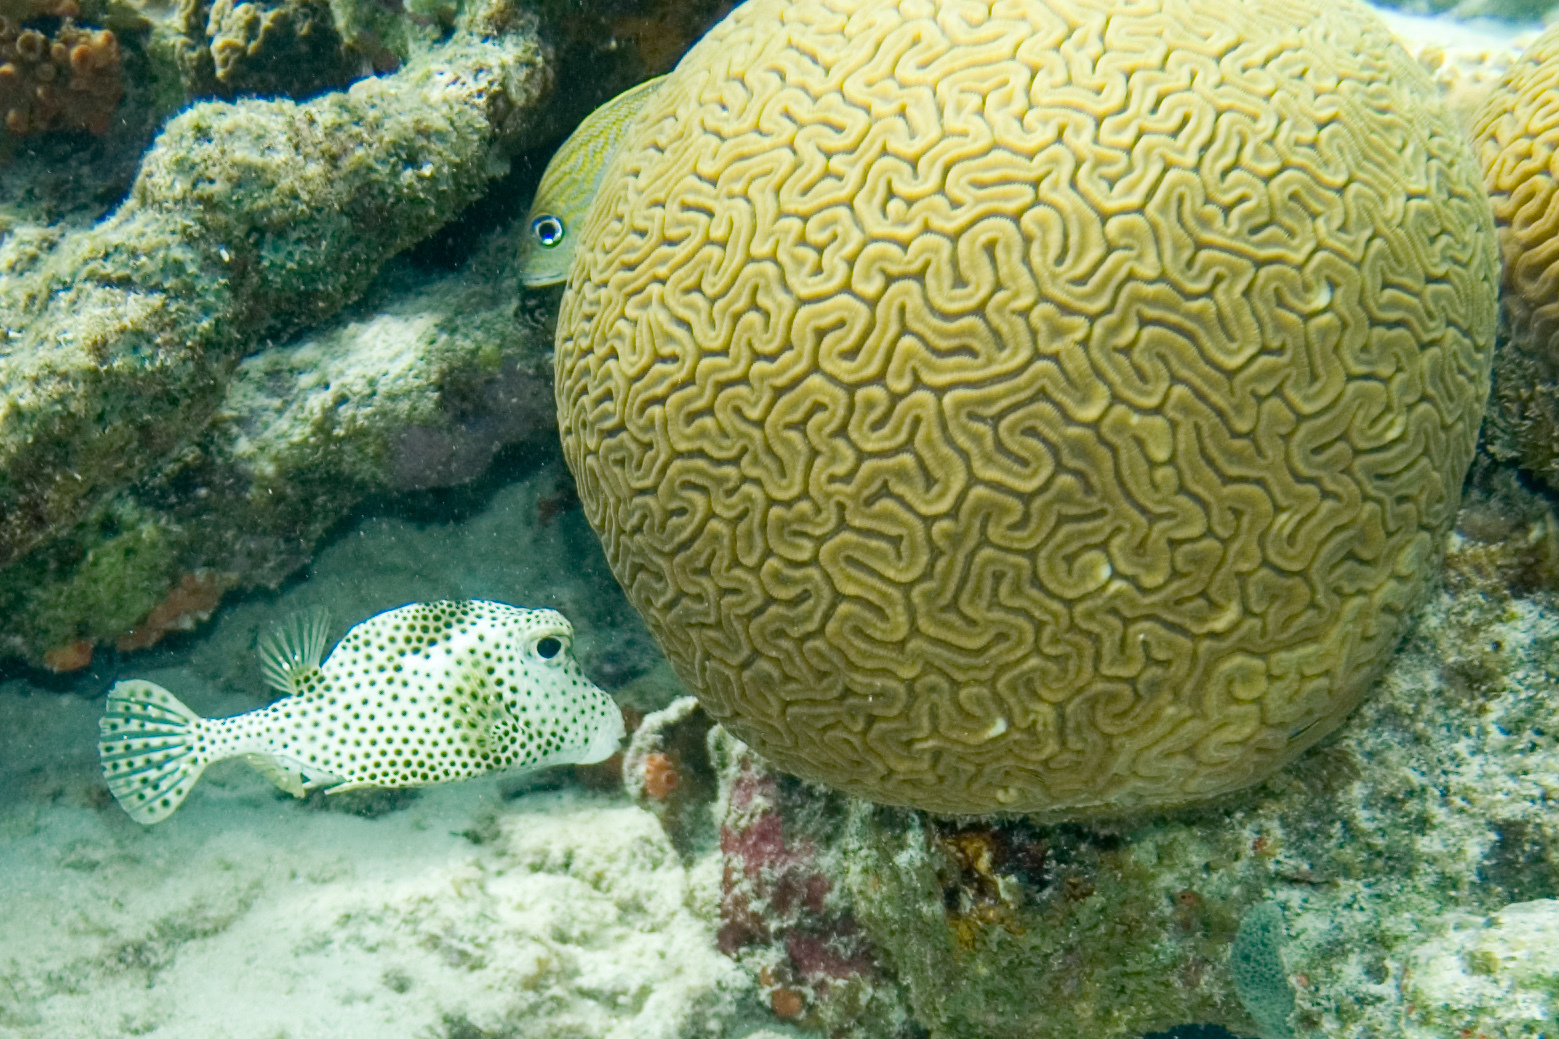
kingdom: Animalia
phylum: Cnidaria
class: Anthozoa
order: Scleractinia
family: Faviidae
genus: Diploria
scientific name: Diploria labyrinthiformis
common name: Grooved brain coral
